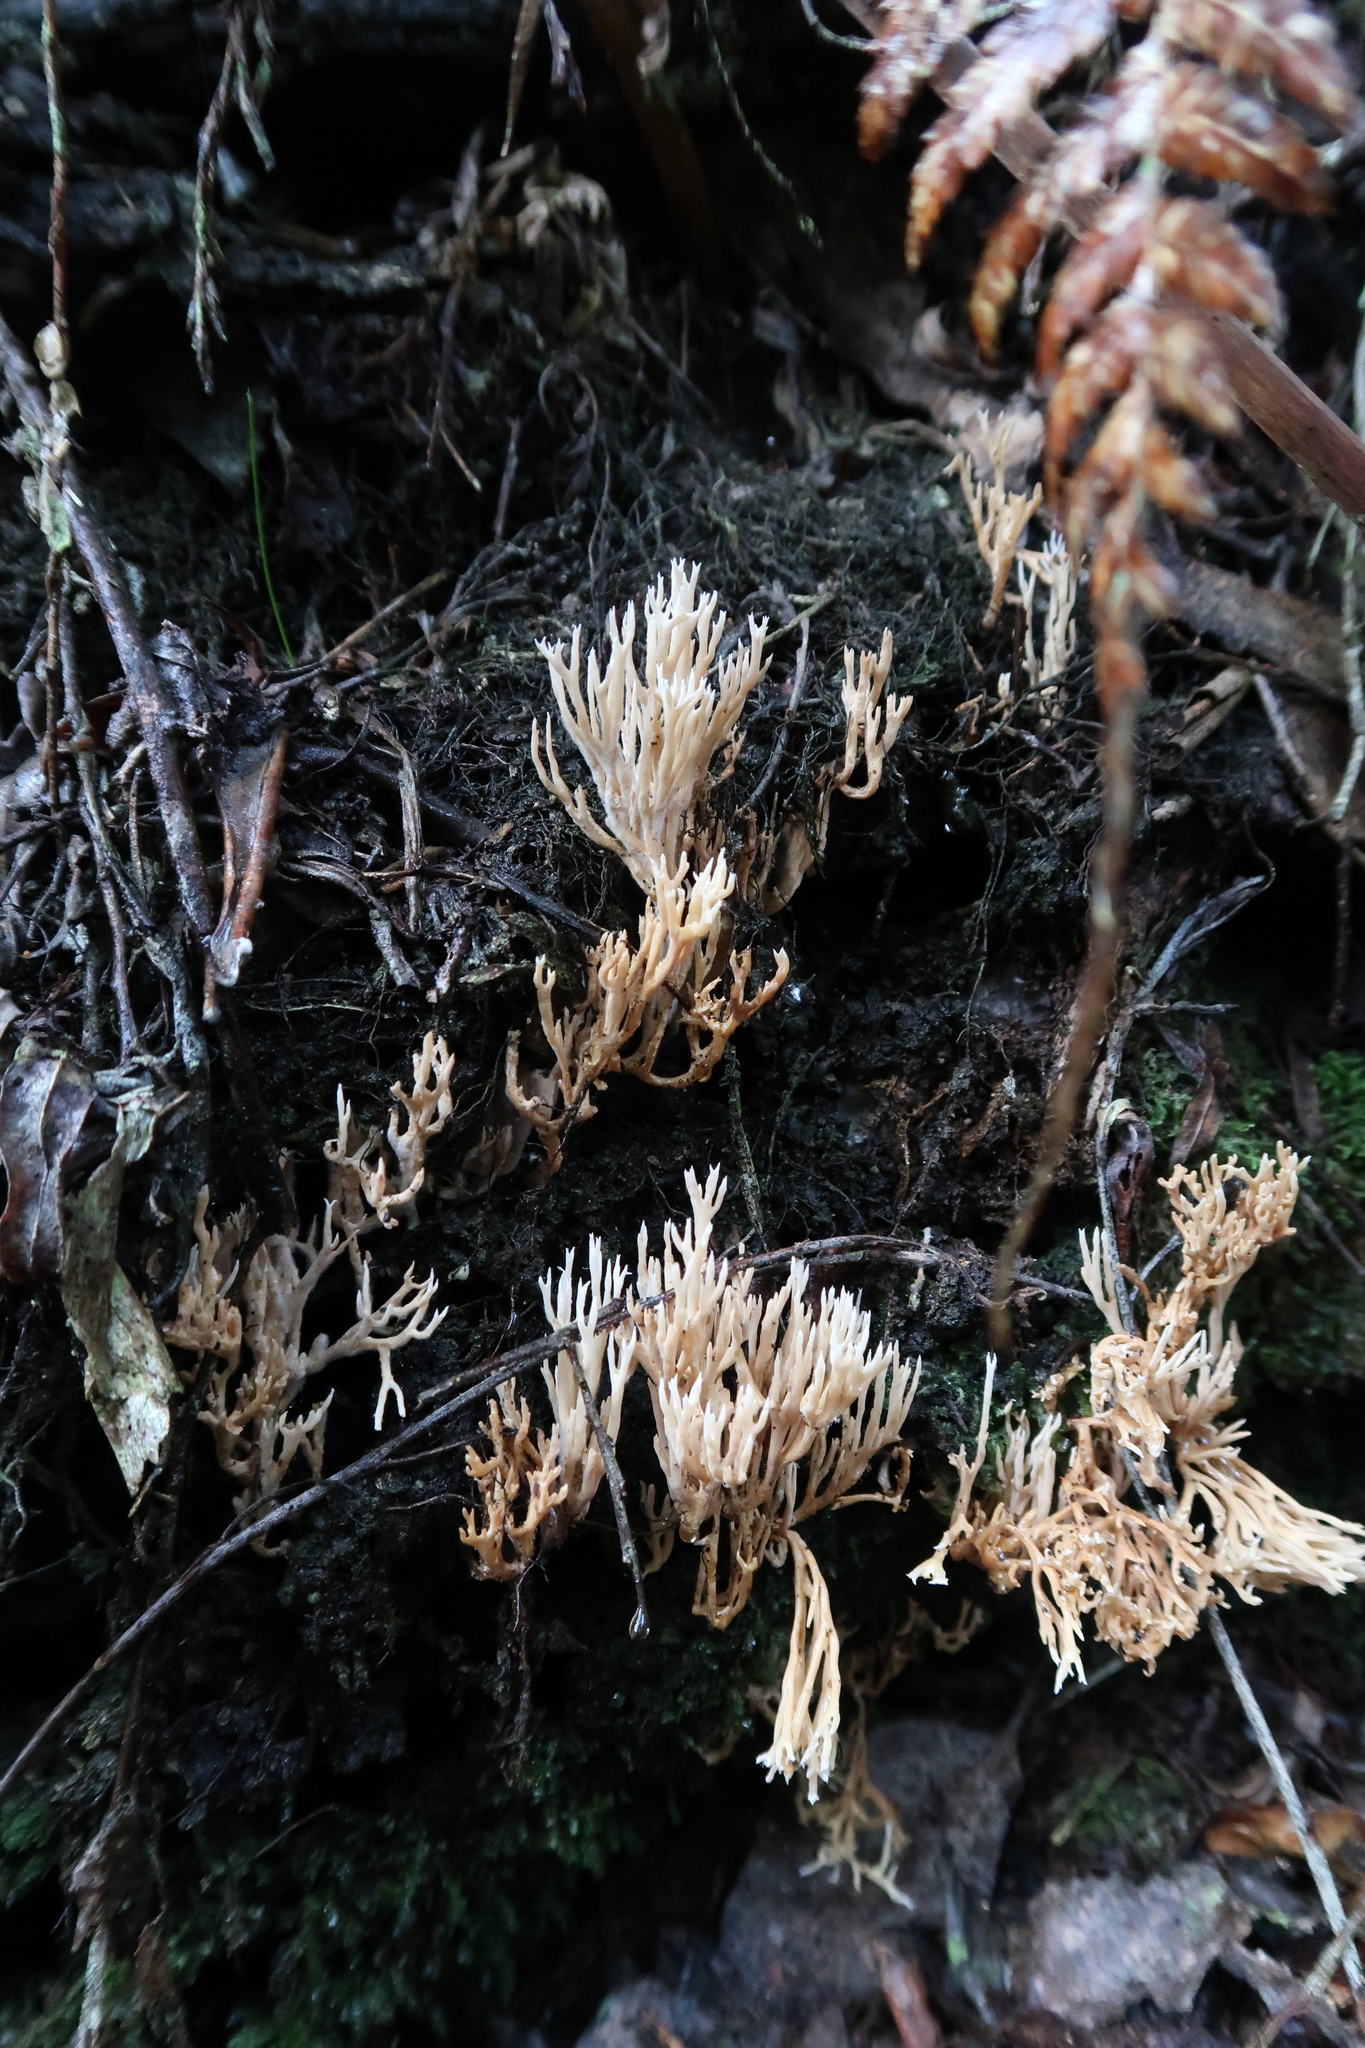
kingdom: Fungi
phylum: Basidiomycota
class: Agaricomycetes
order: Gomphales
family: Gomphaceae
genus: Ramaria
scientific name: Ramaria filicicola
